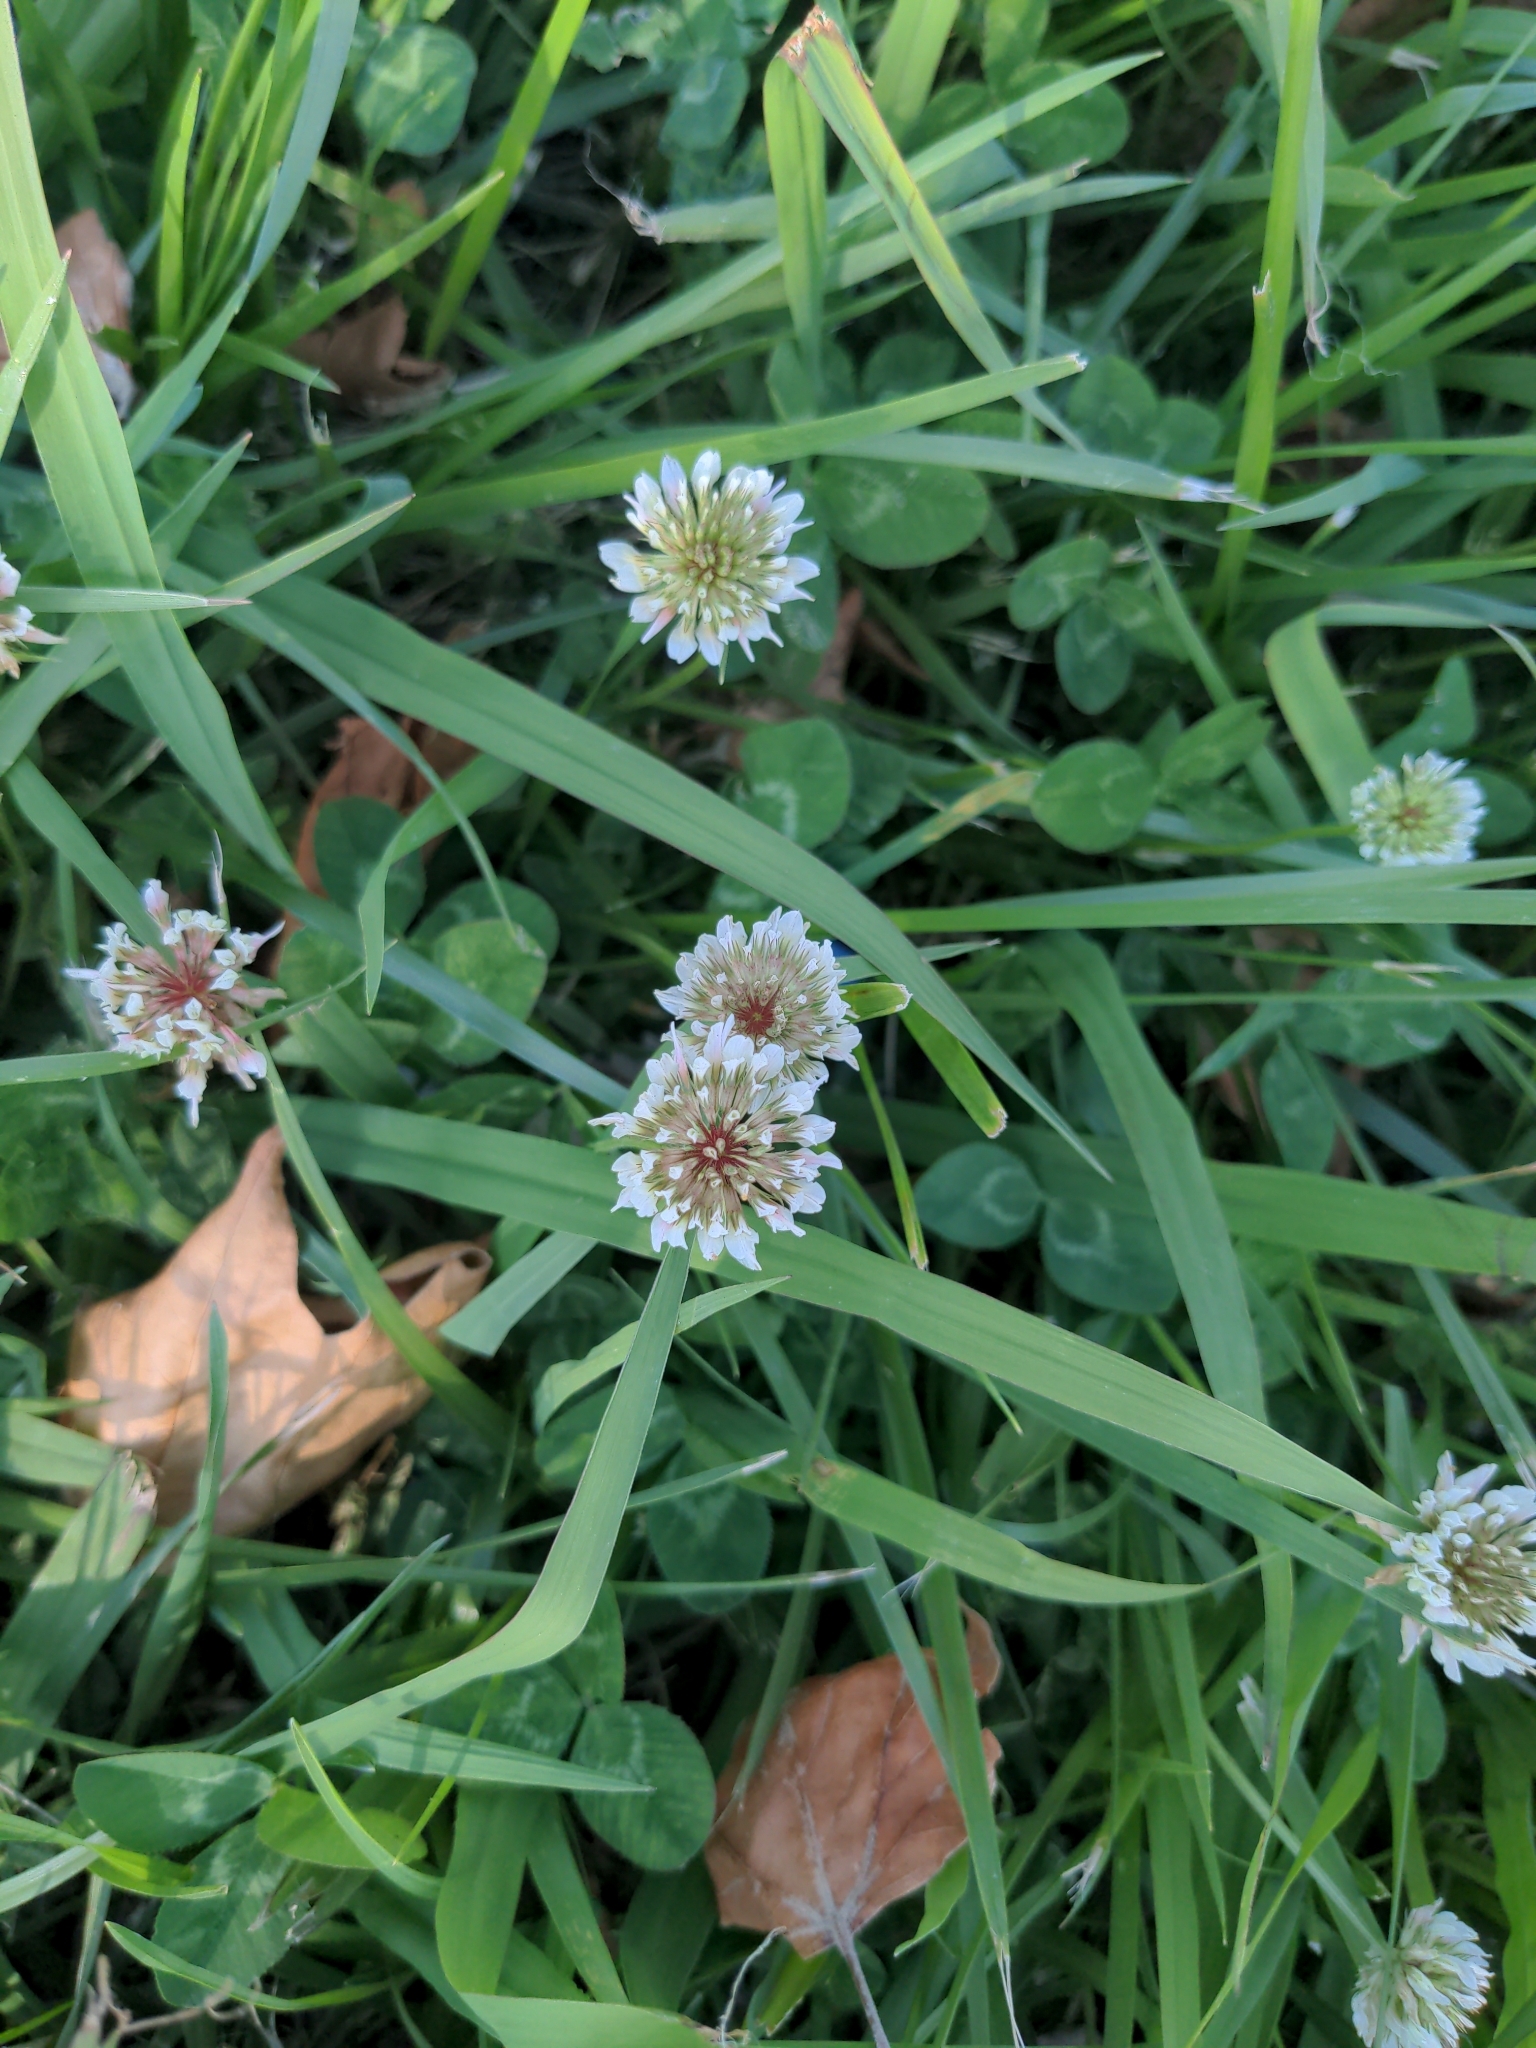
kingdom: Plantae
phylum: Tracheophyta
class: Magnoliopsida
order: Fabales
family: Fabaceae
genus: Trifolium
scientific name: Trifolium repens
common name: White clover
